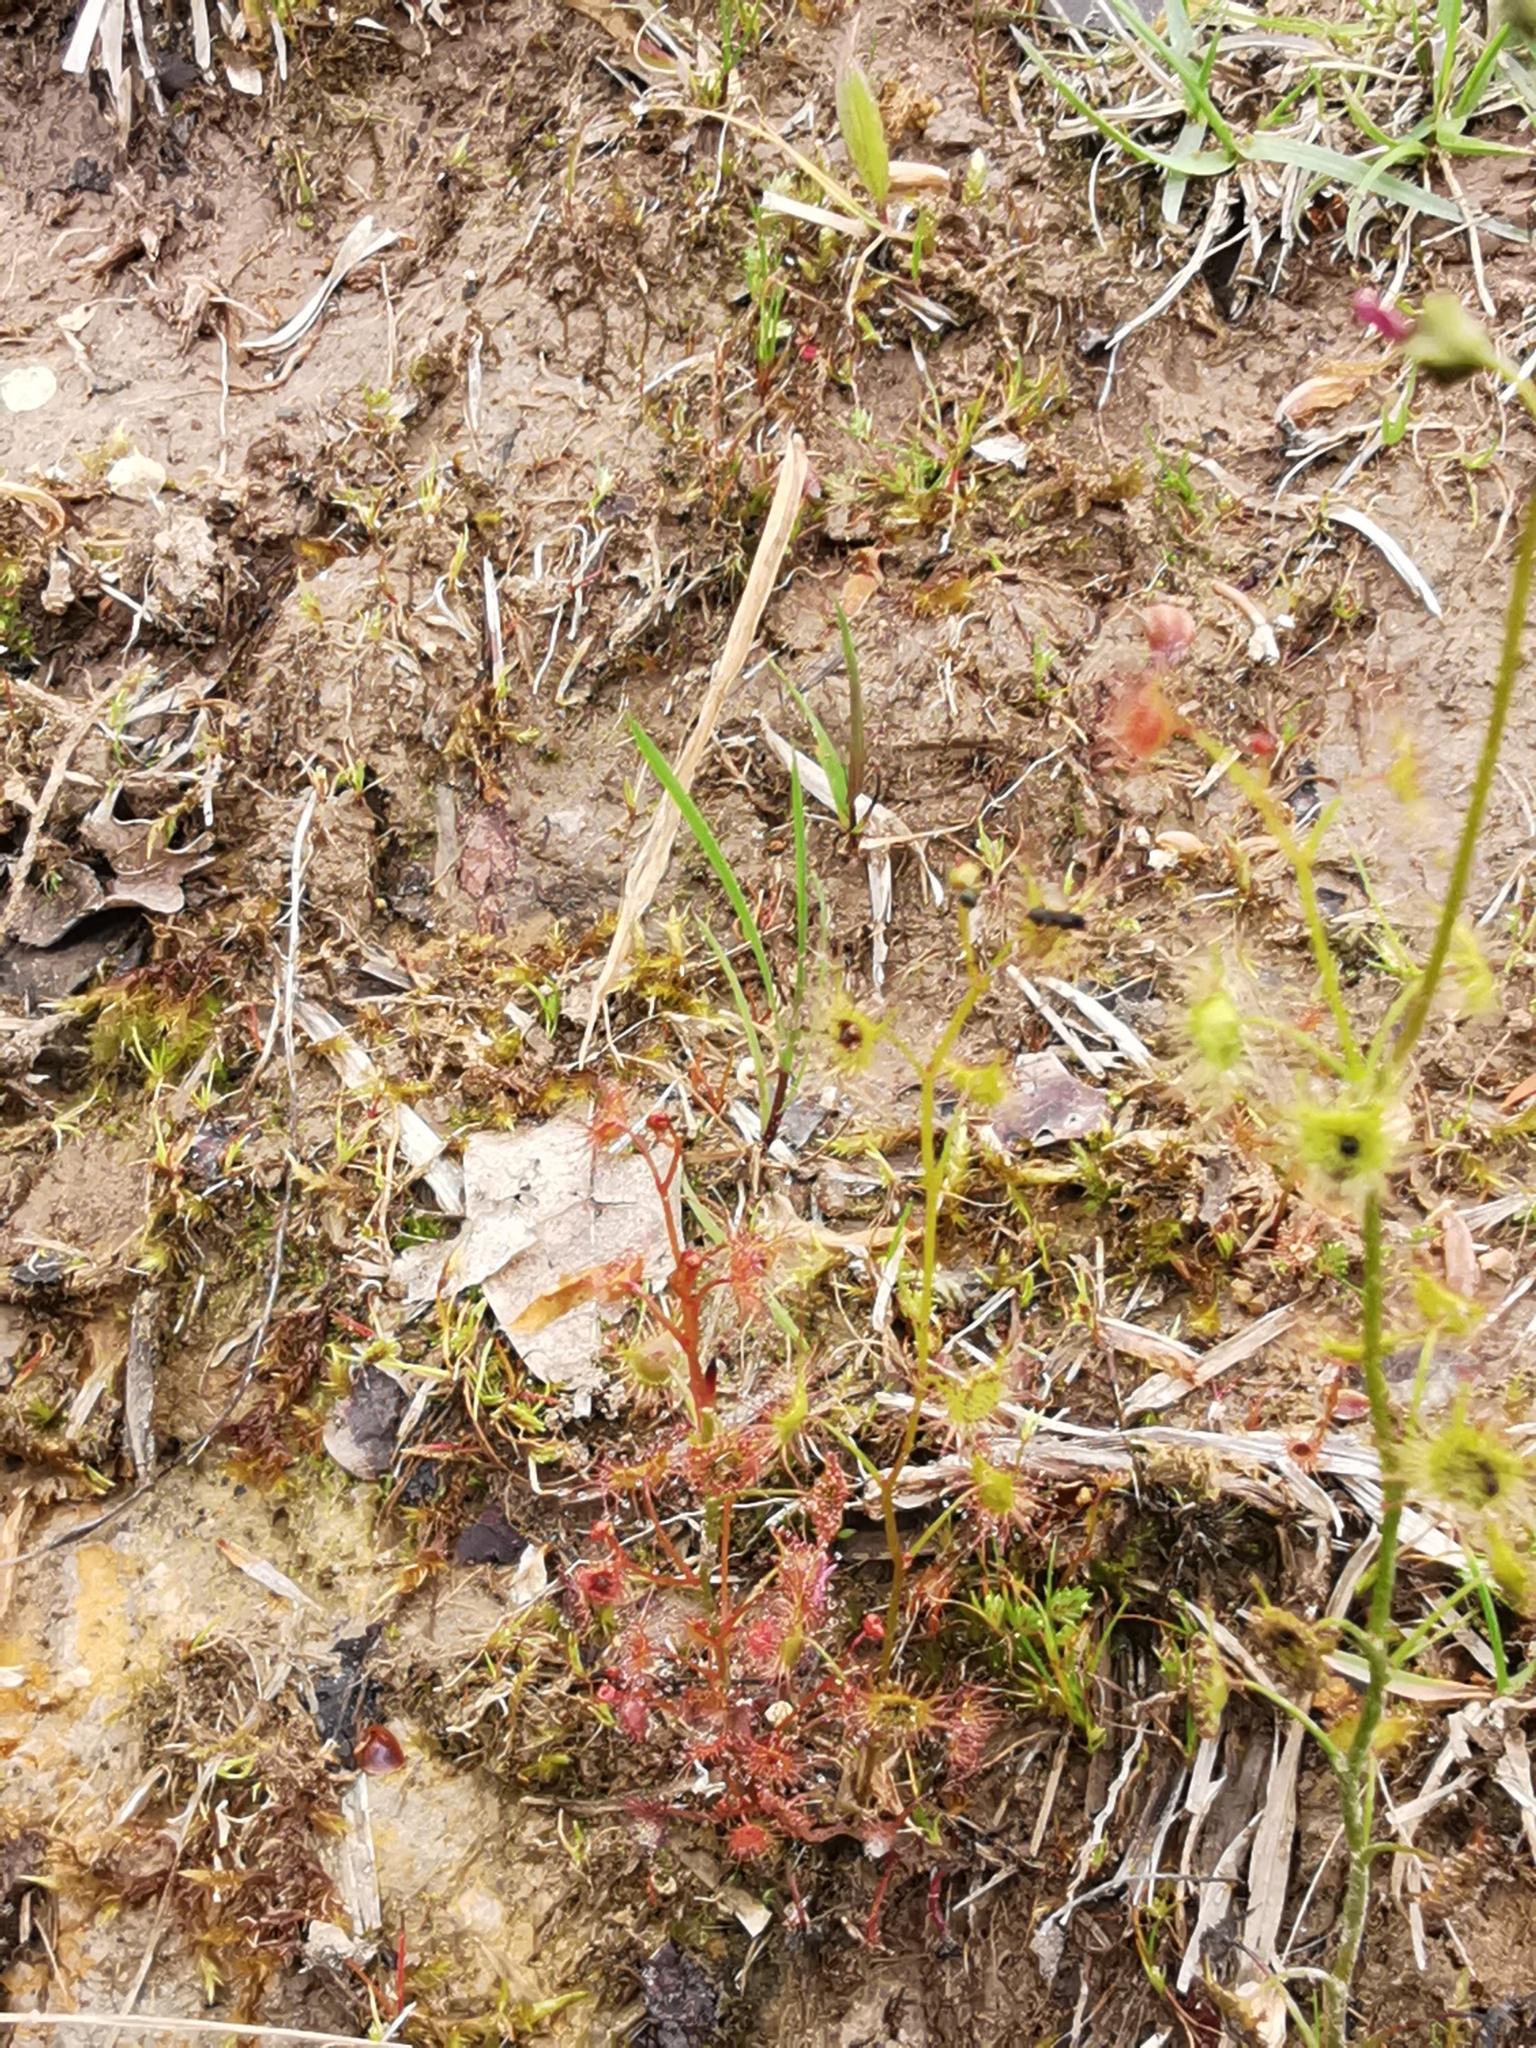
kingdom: Plantae
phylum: Tracheophyta
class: Magnoliopsida
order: Caryophyllales
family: Droseraceae
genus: Drosera
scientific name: Drosera peltata
